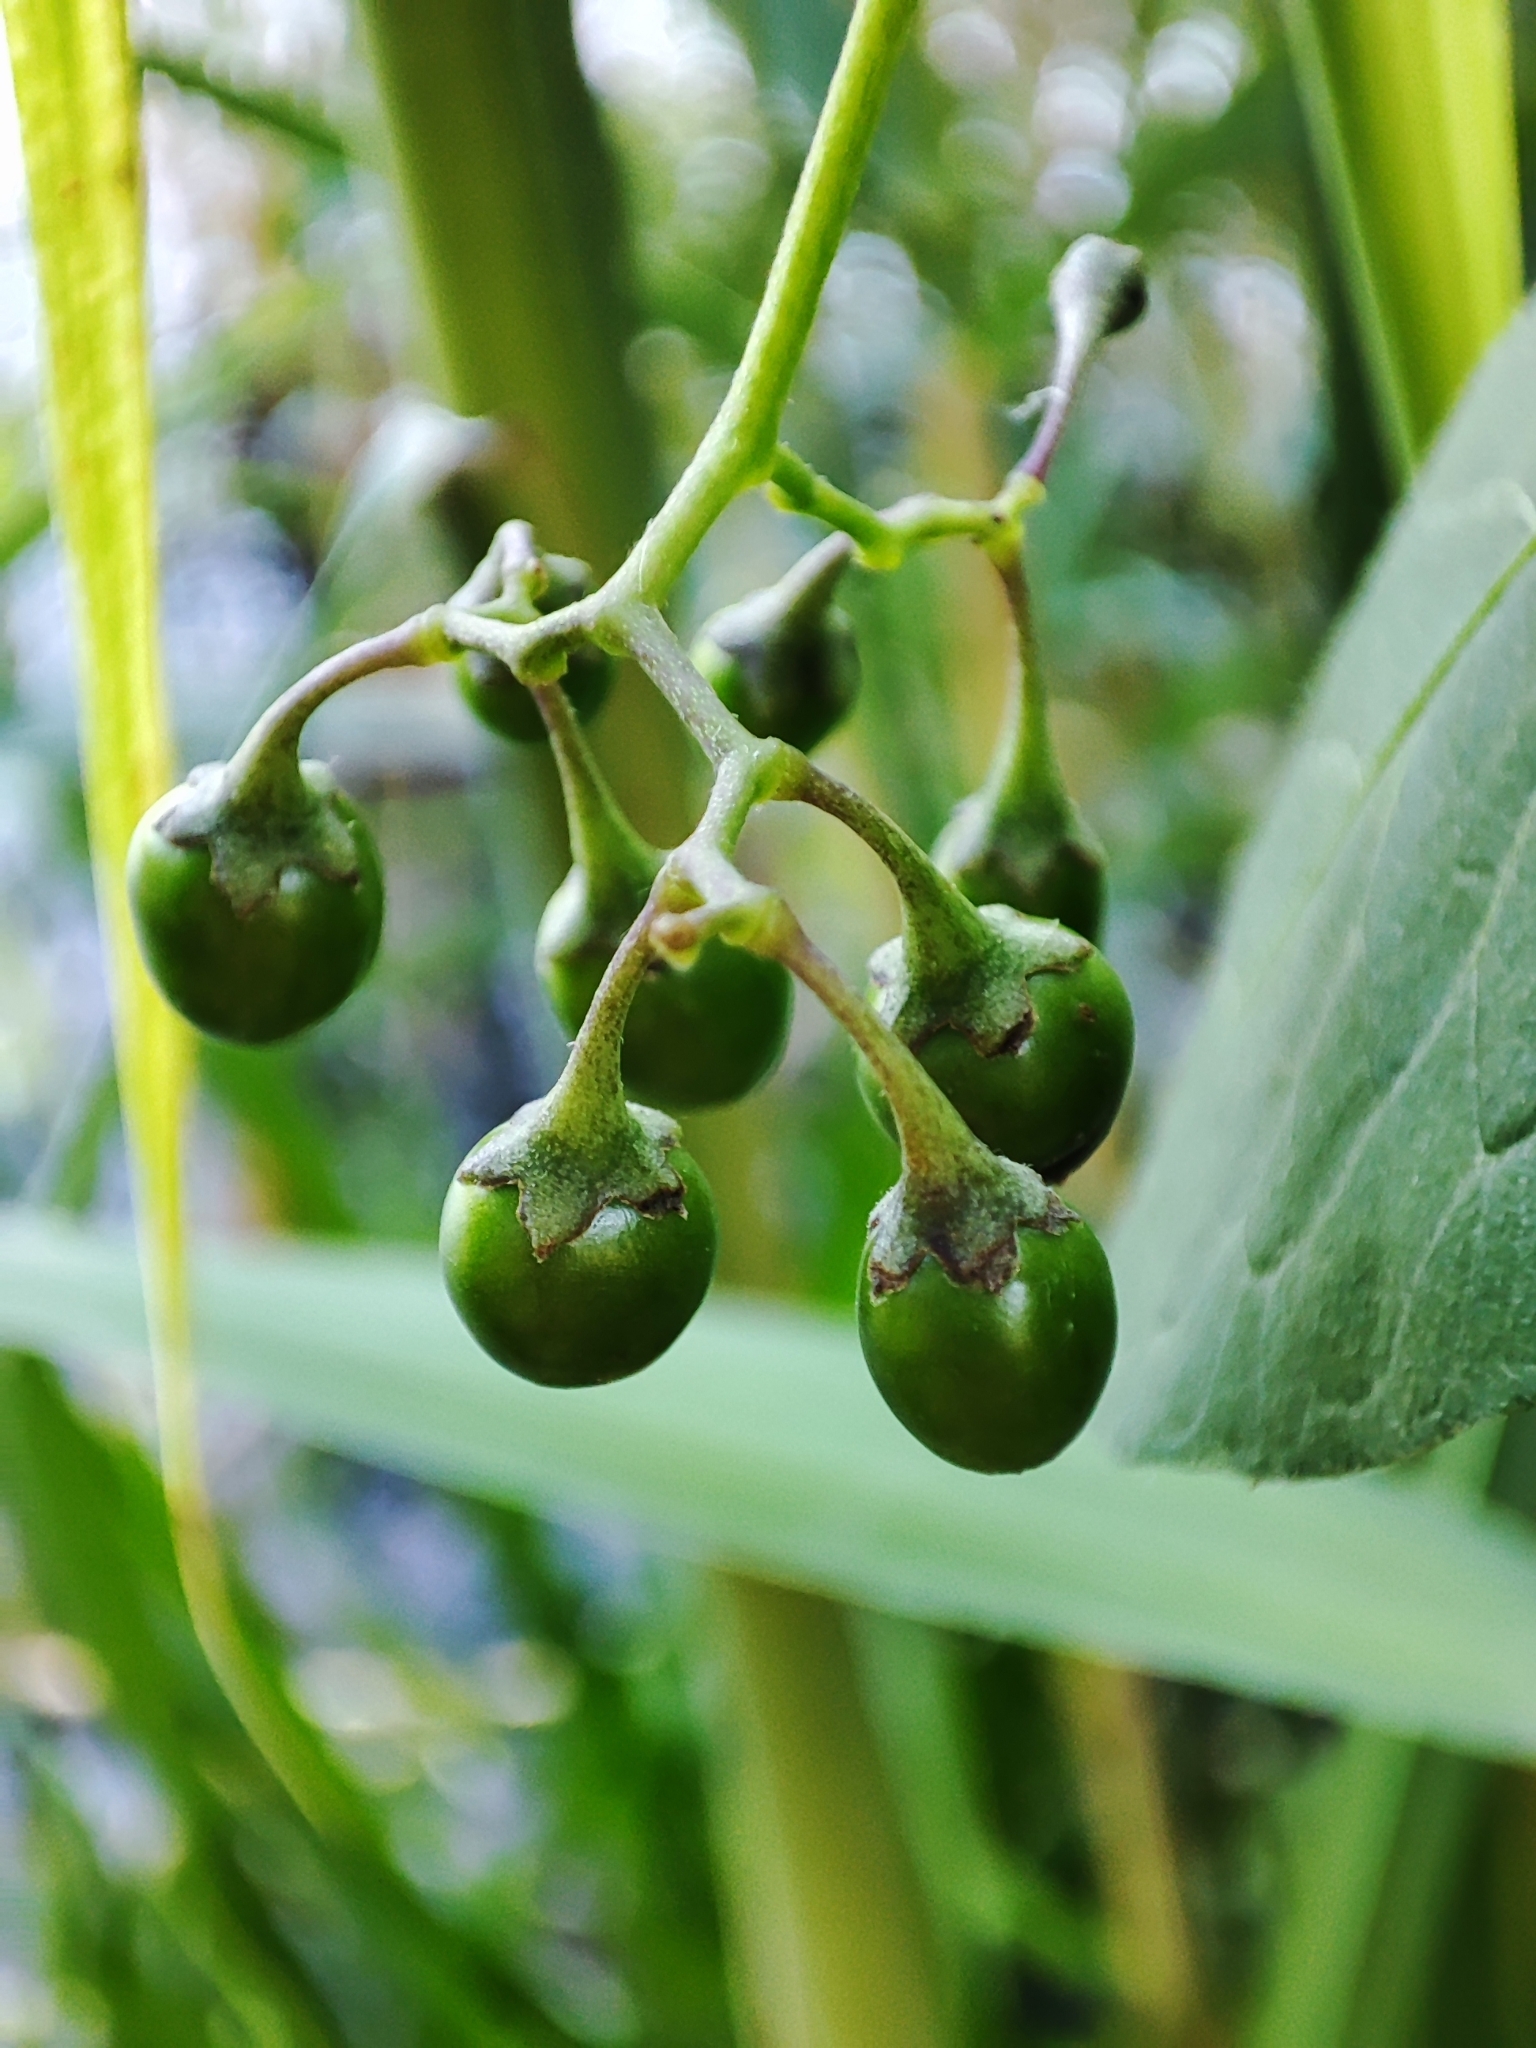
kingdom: Plantae
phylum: Tracheophyta
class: Magnoliopsida
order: Solanales
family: Solanaceae
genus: Solanum
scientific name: Solanum dulcamara
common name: Climbing nightshade
